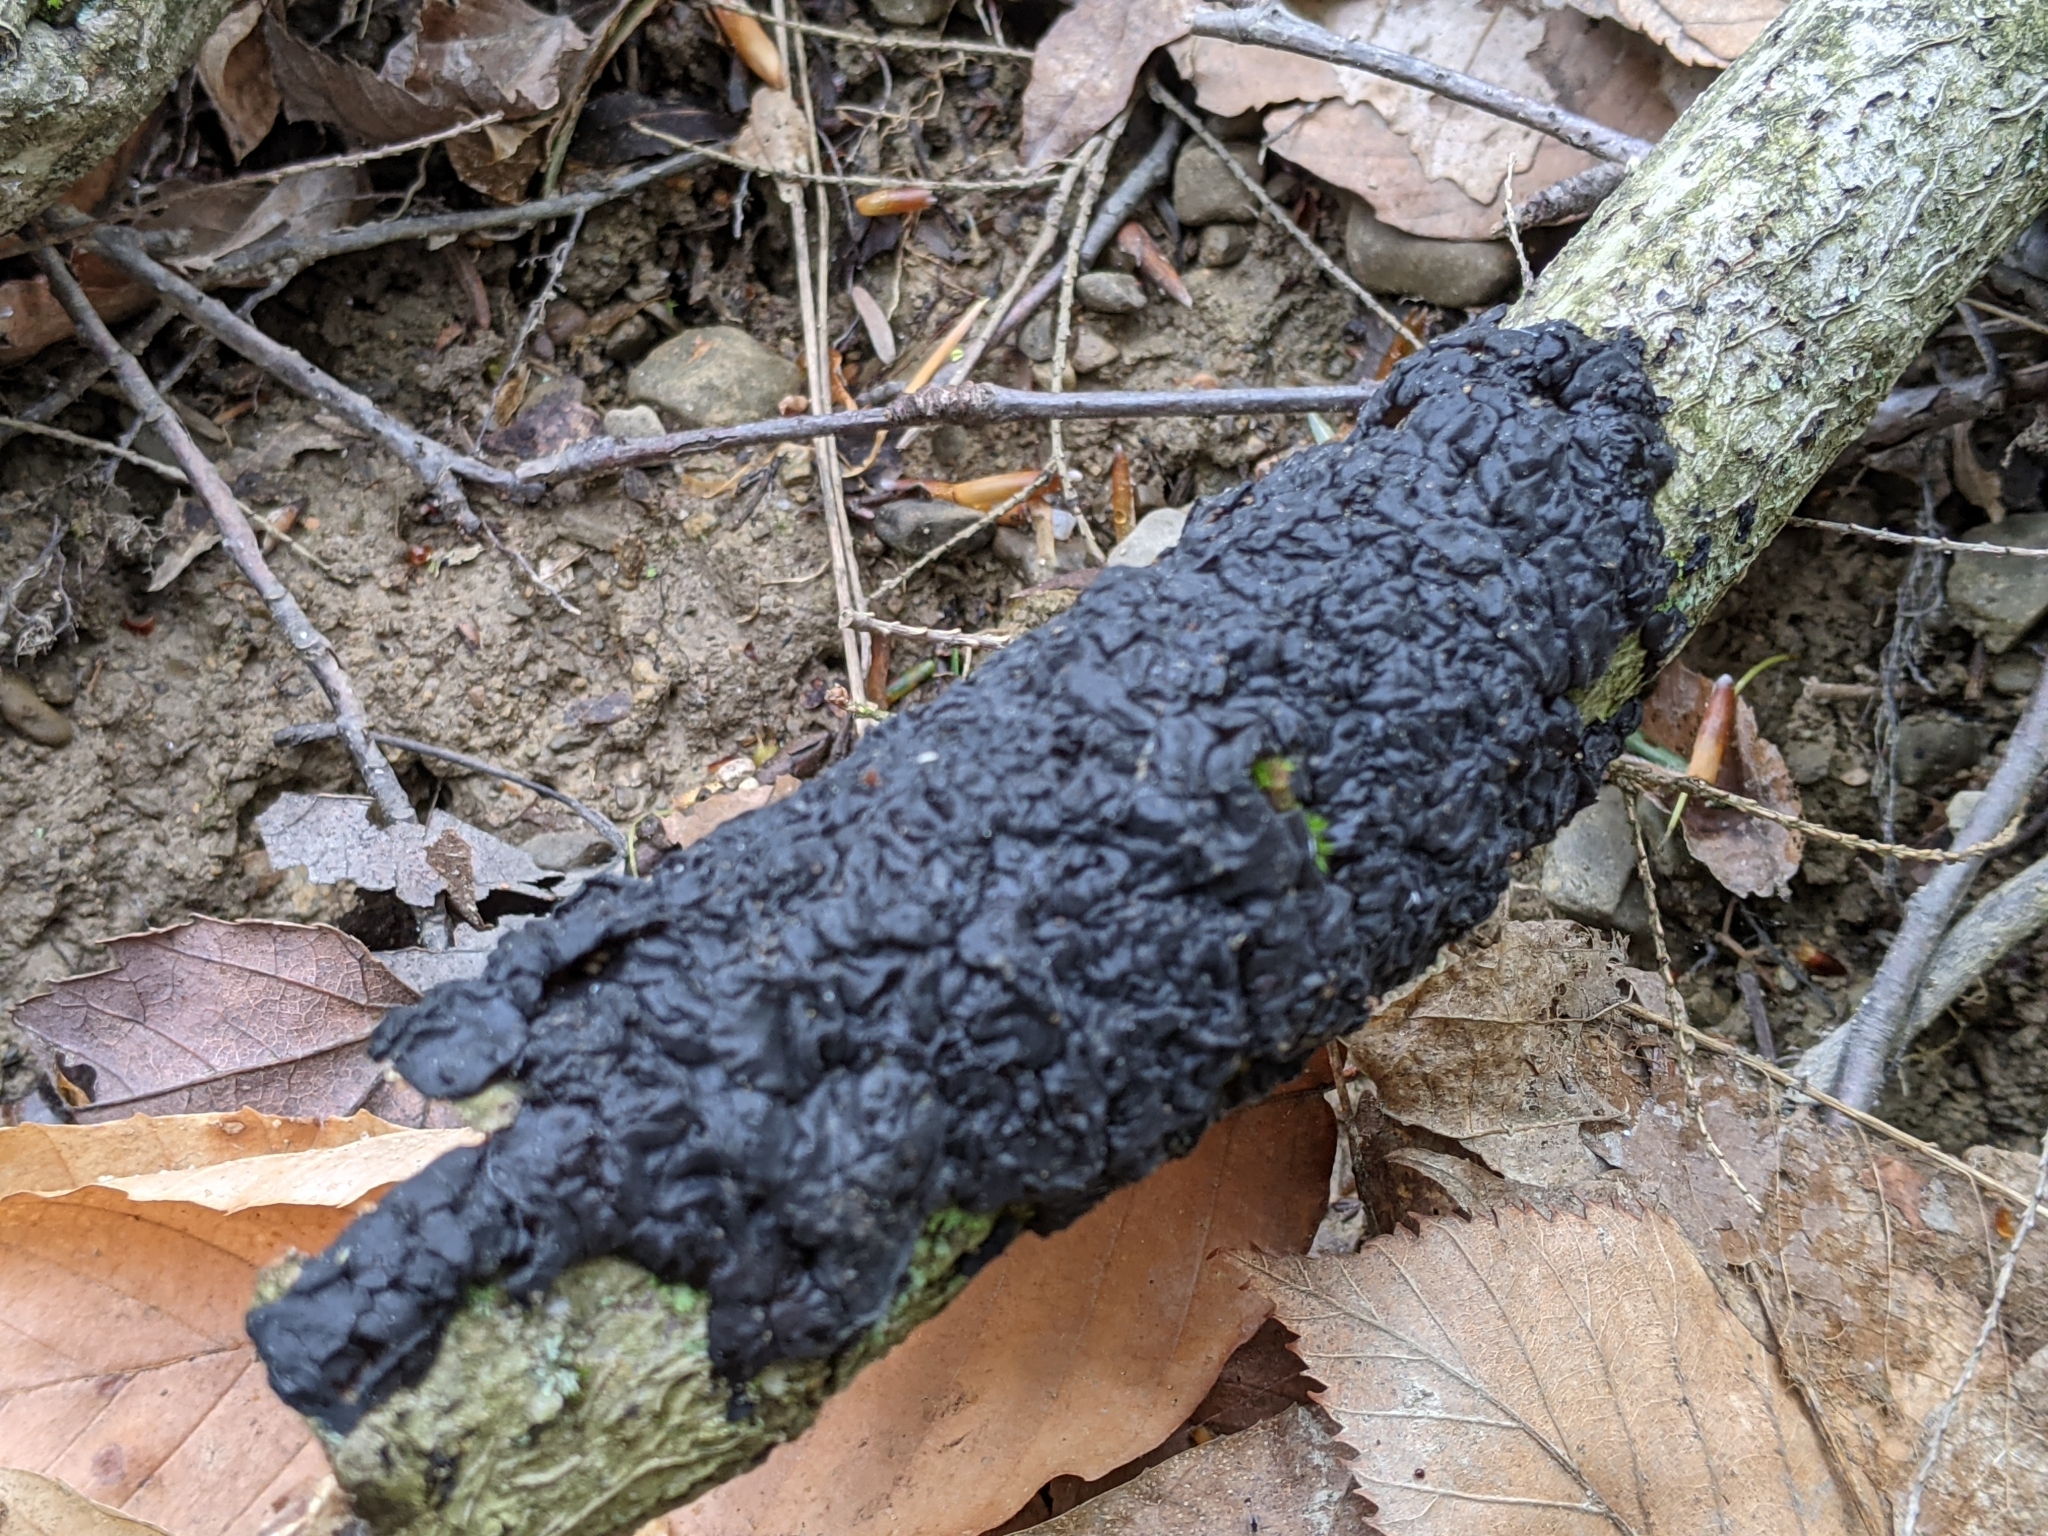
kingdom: Fungi
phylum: Basidiomycota
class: Agaricomycetes
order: Auriculariales
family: Auriculariaceae
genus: Exidia
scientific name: Exidia
